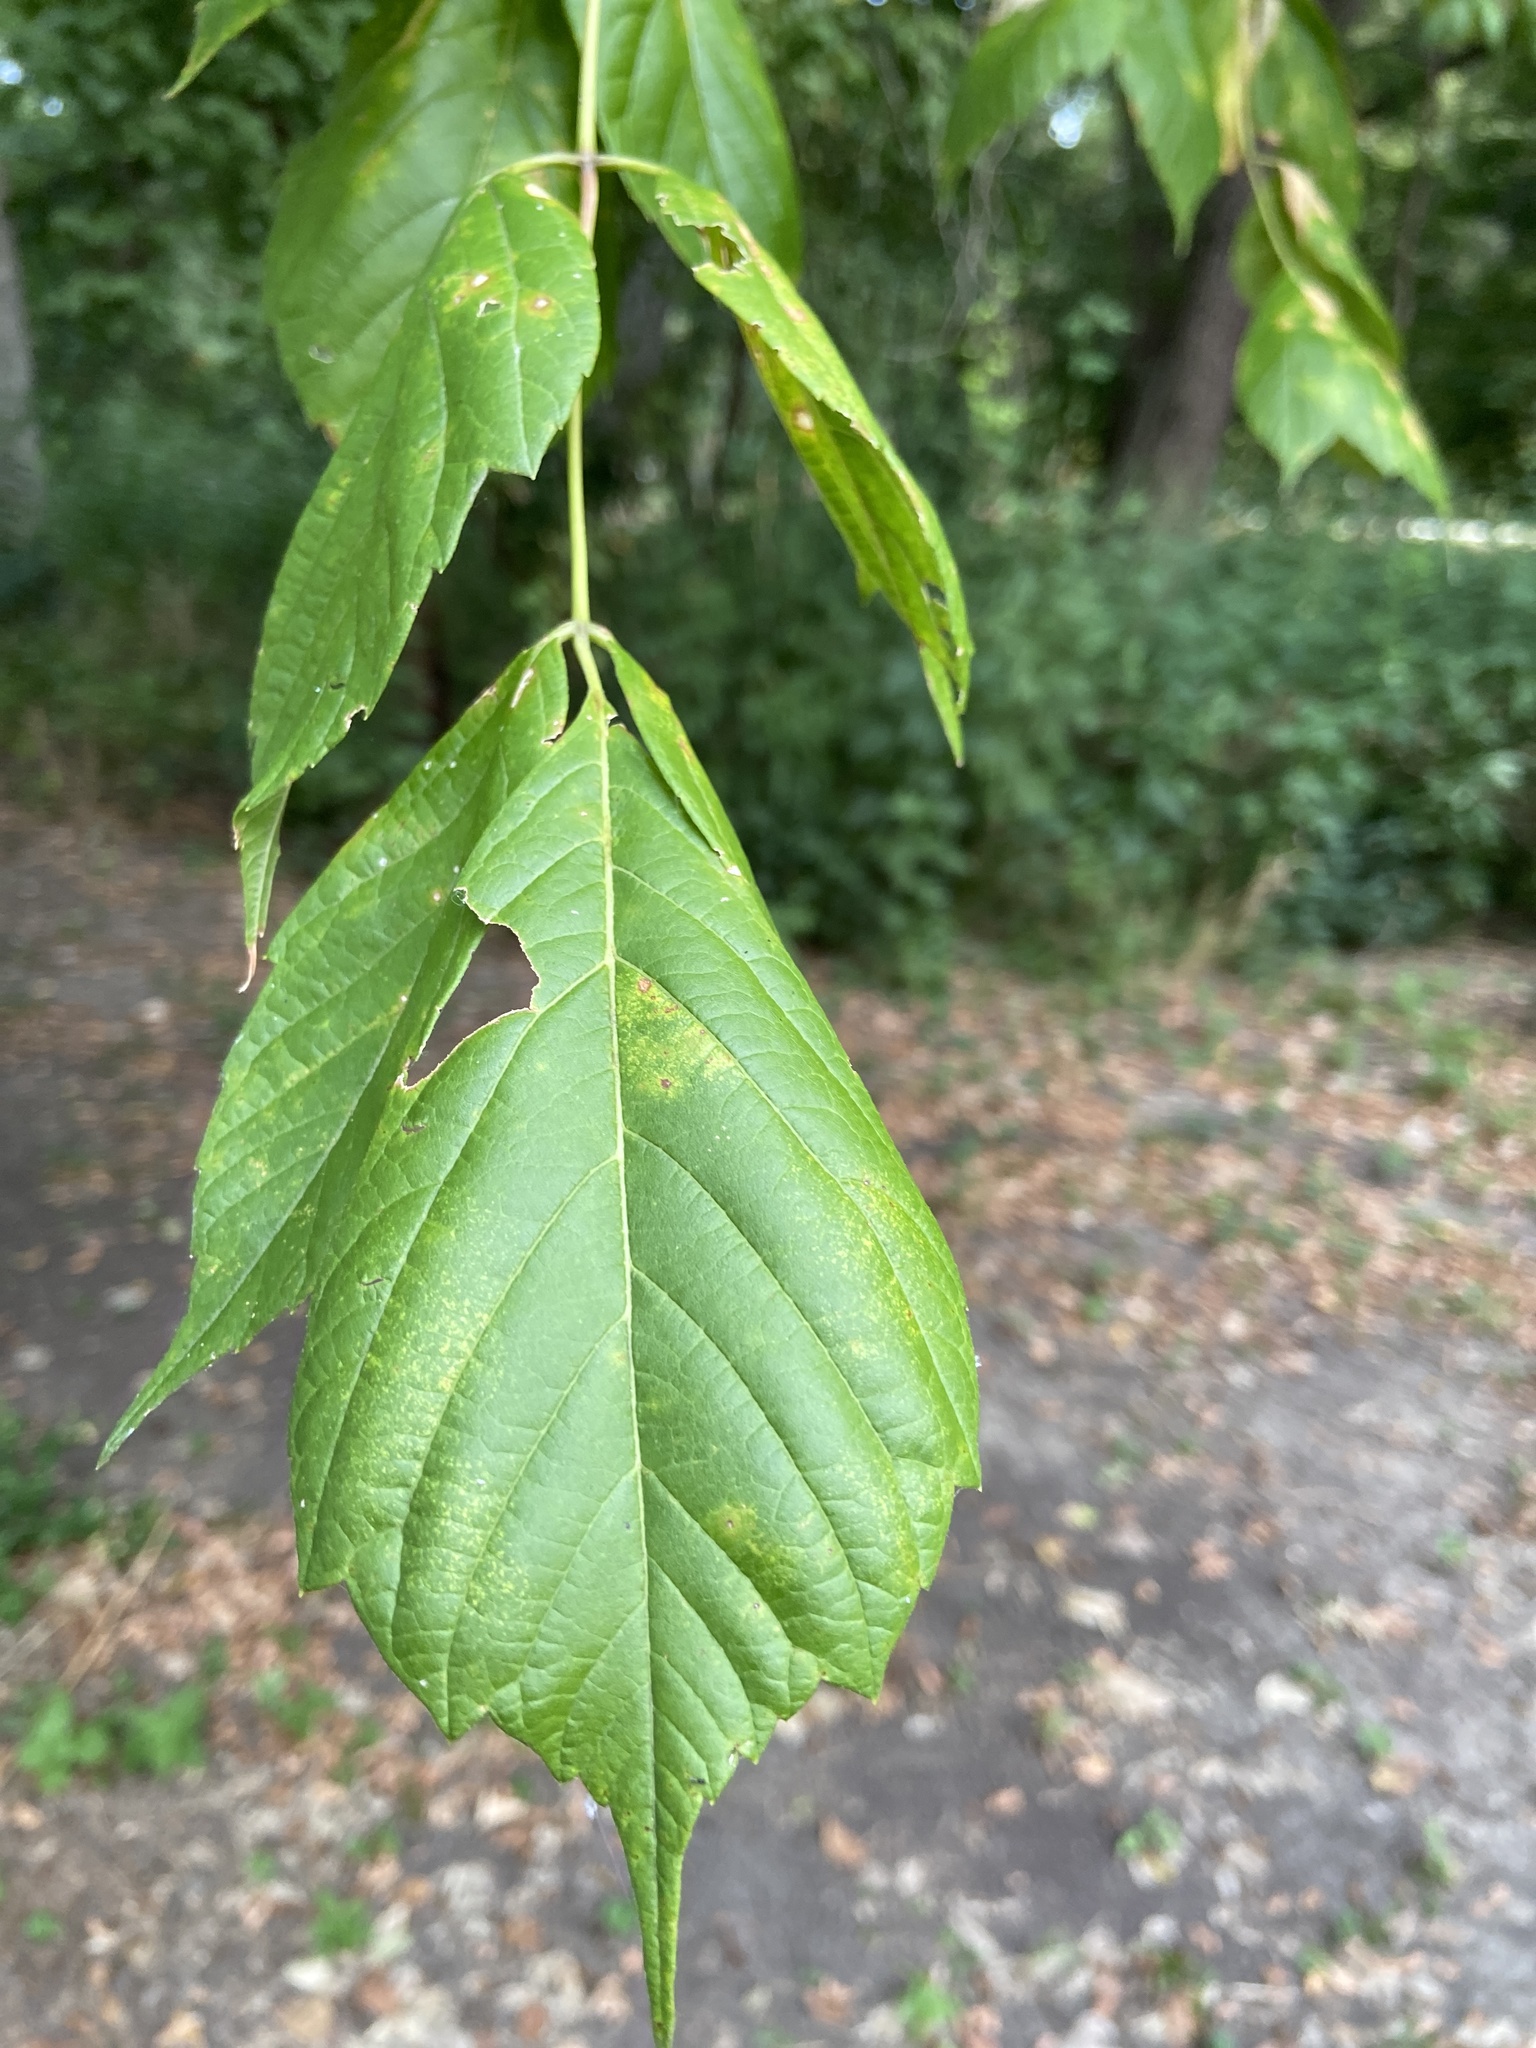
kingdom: Plantae
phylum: Tracheophyta
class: Magnoliopsida
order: Sapindales
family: Sapindaceae
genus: Acer
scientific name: Acer negundo
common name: Ashleaf maple
